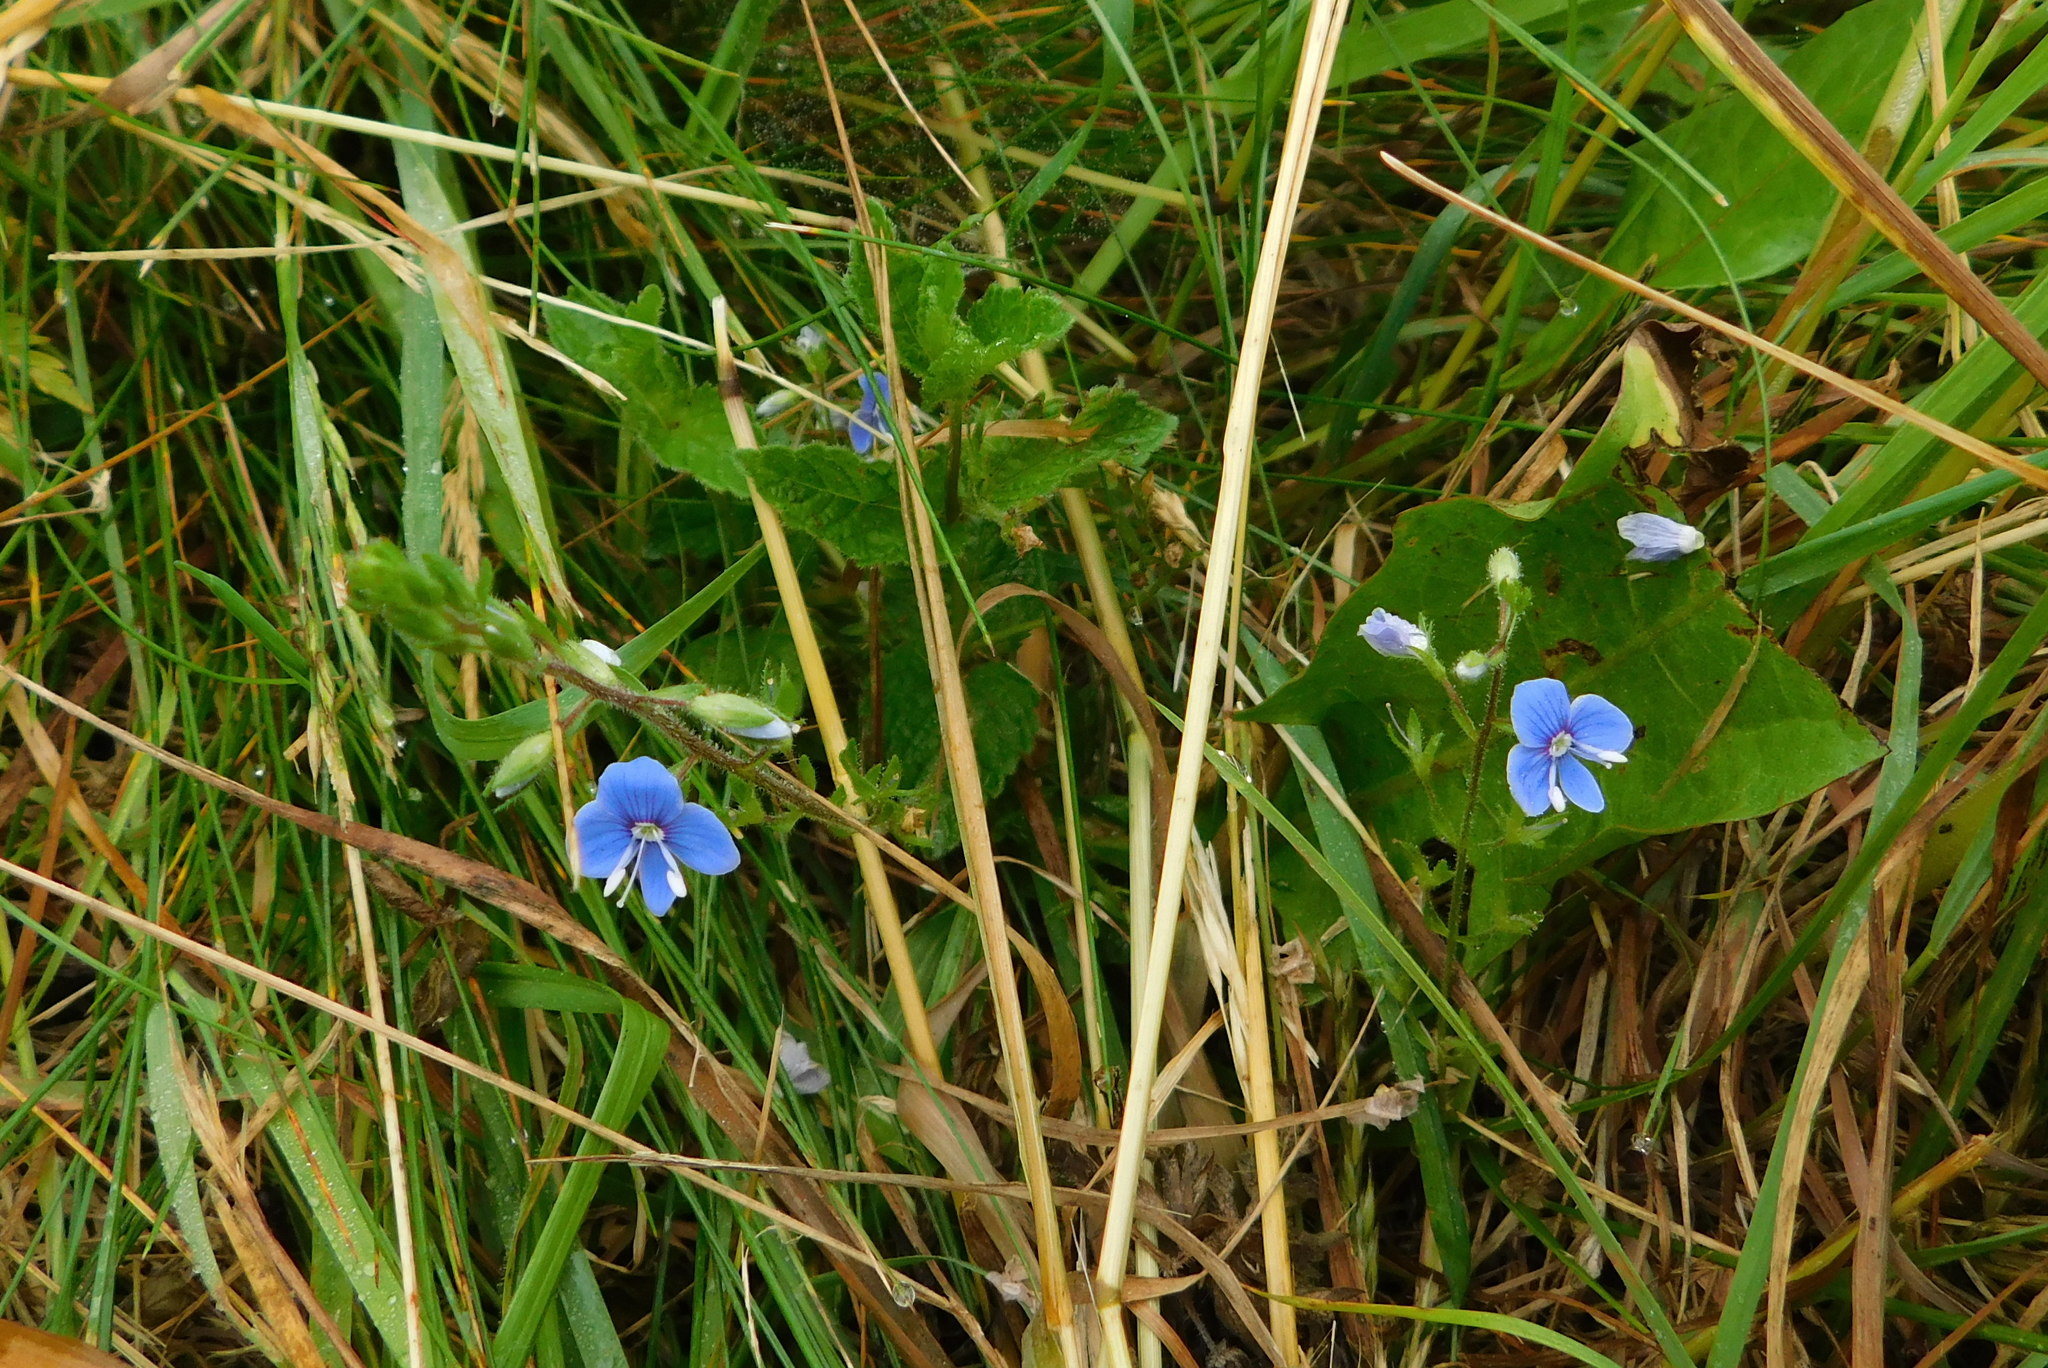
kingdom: Plantae
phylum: Tracheophyta
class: Magnoliopsida
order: Lamiales
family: Plantaginaceae
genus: Veronica
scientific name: Veronica chamaedrys
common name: Germander speedwell
